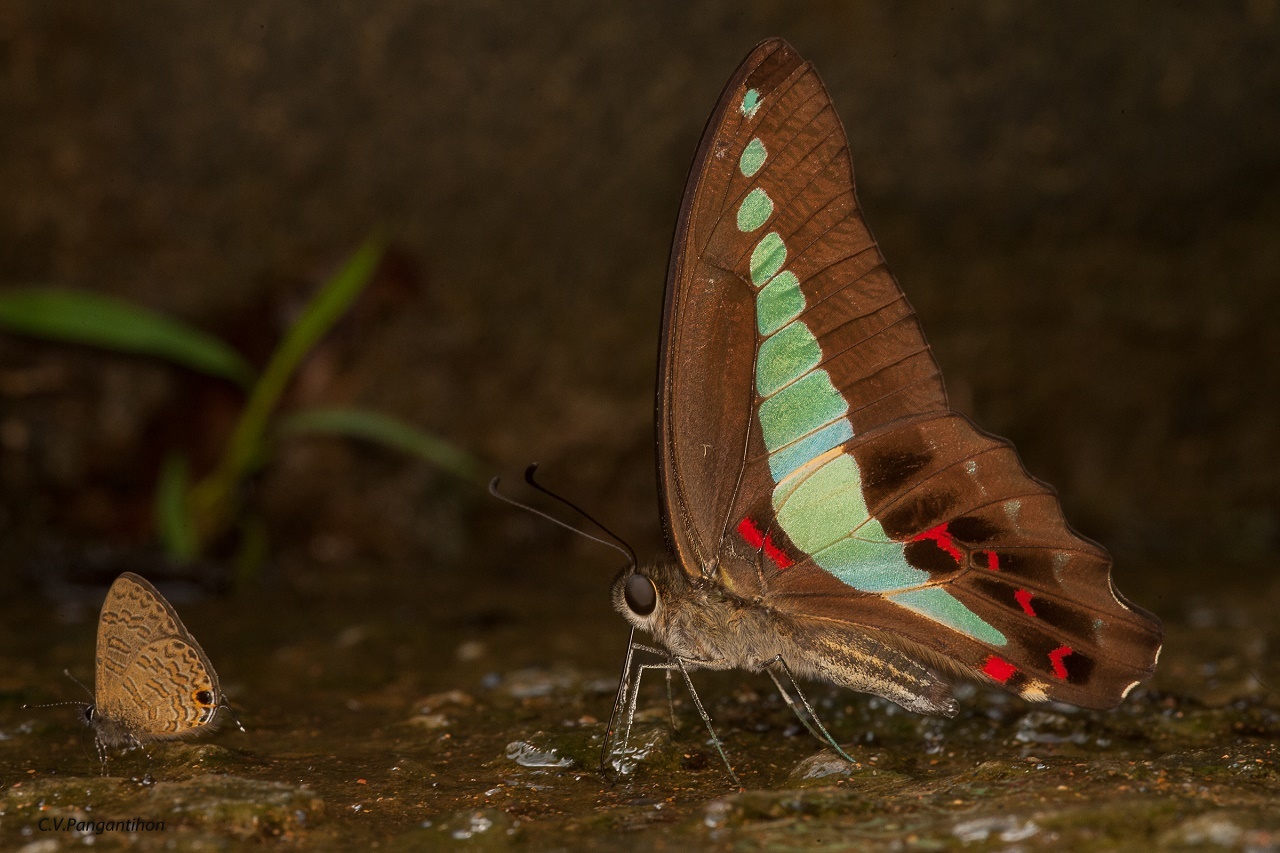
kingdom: Fungi
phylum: Ascomycota
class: Sordariomycetes
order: Microascales
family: Microascaceae
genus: Graphium
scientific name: Graphium sarpedon
